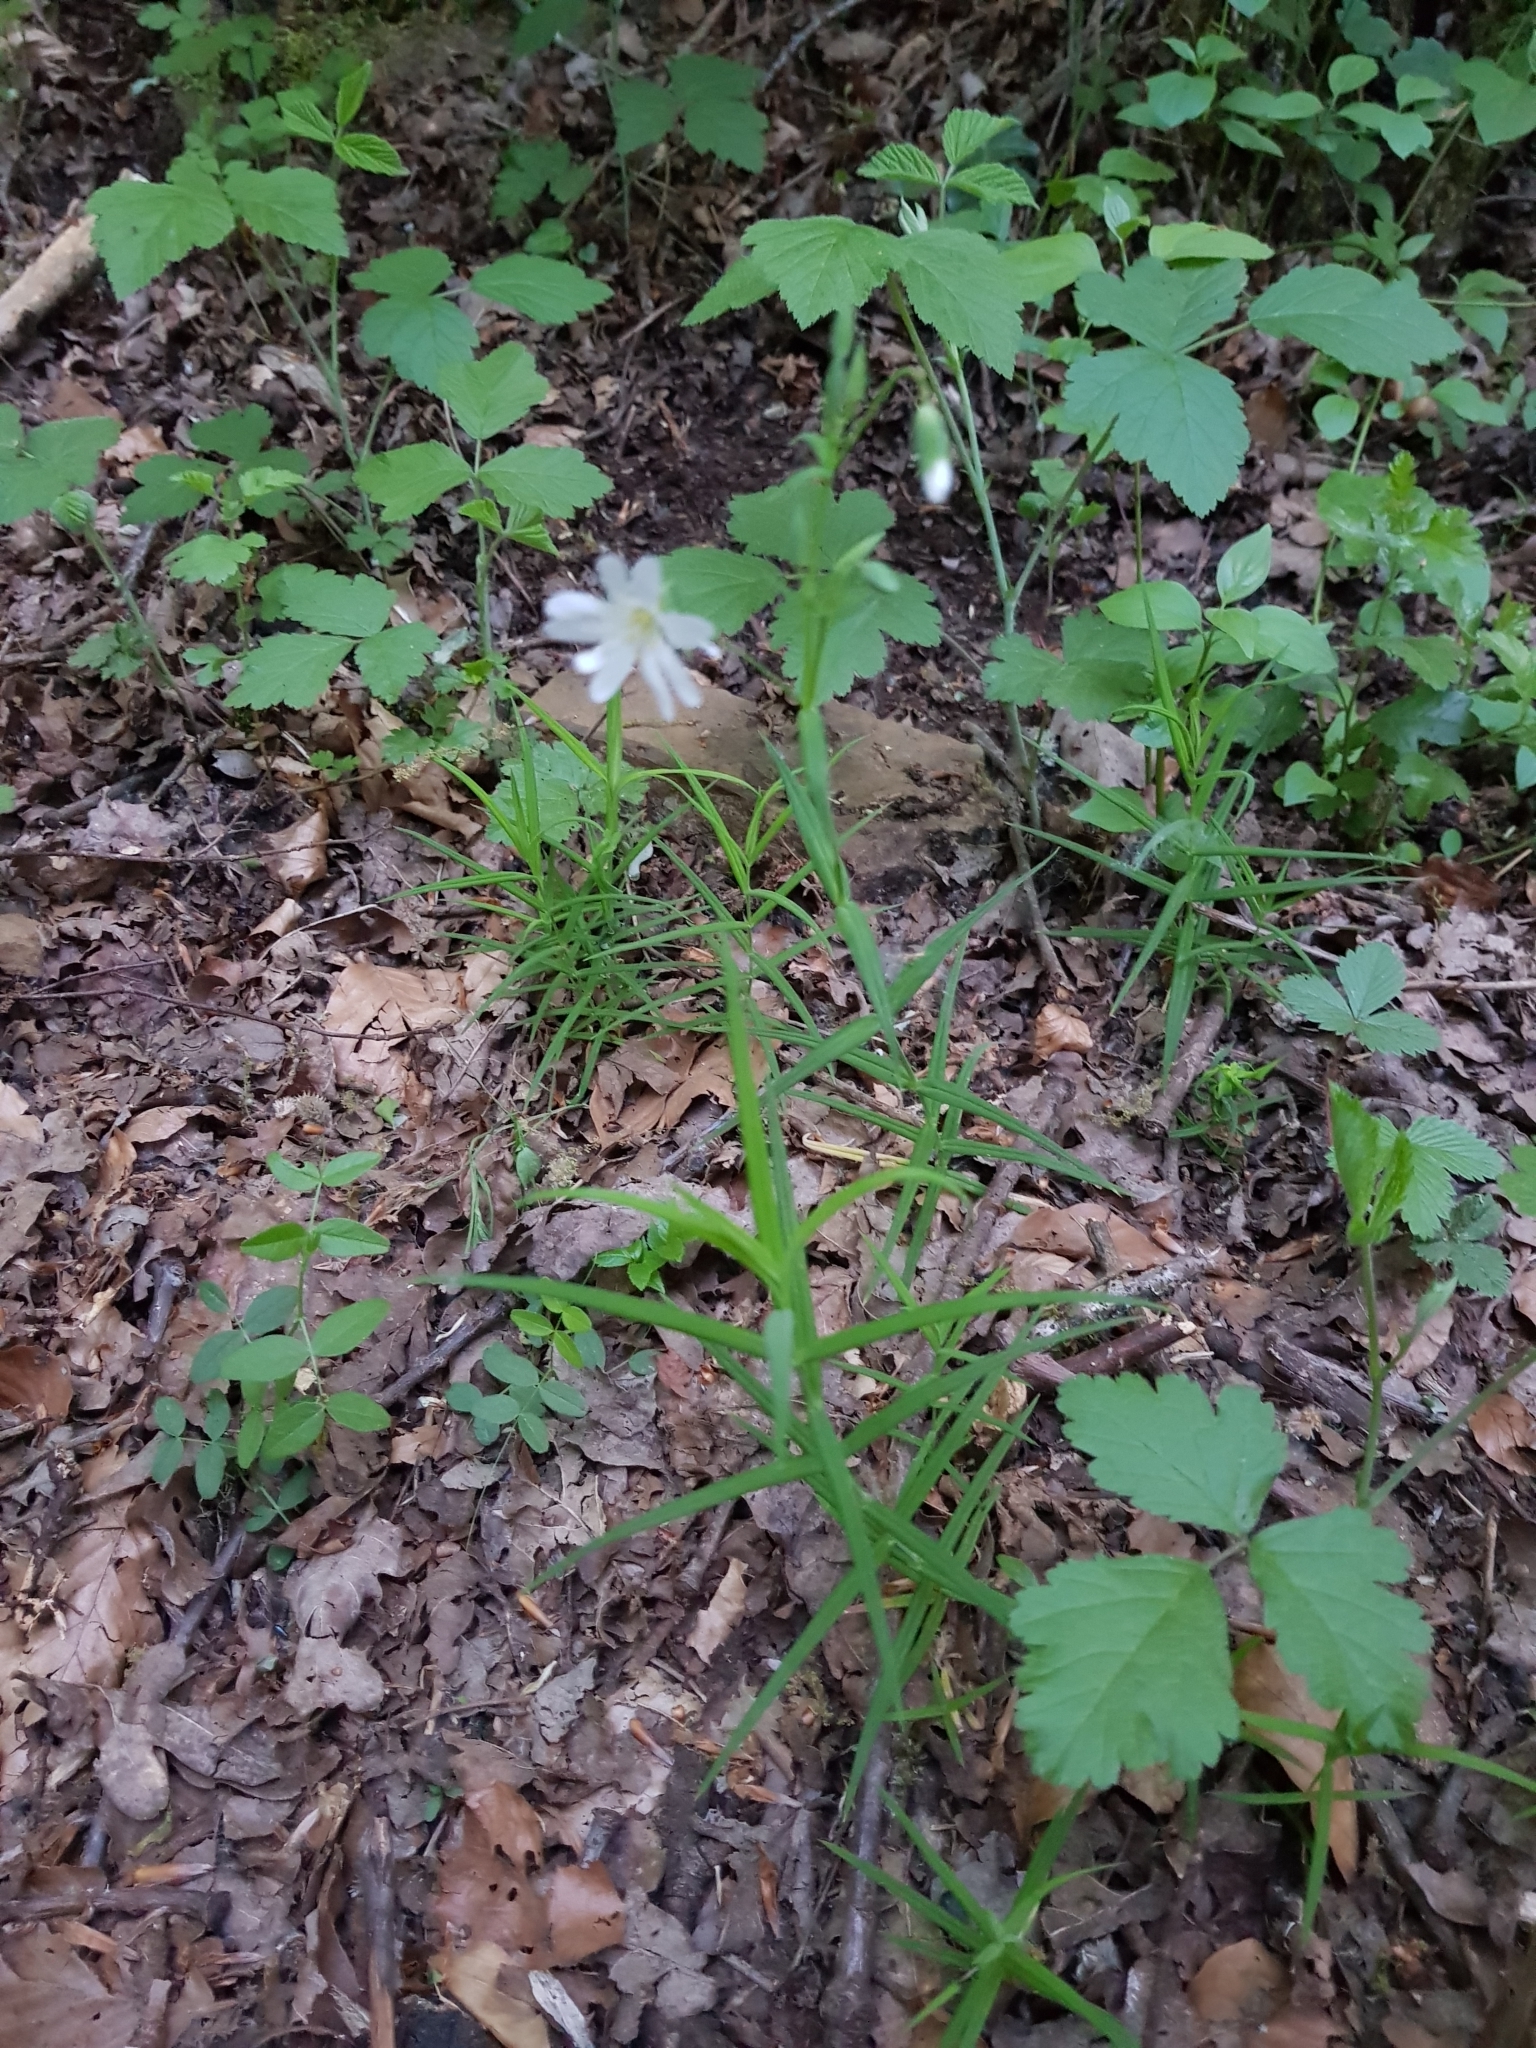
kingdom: Plantae
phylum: Tracheophyta
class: Magnoliopsida
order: Caryophyllales
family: Caryophyllaceae
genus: Rabelera
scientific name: Rabelera holostea
